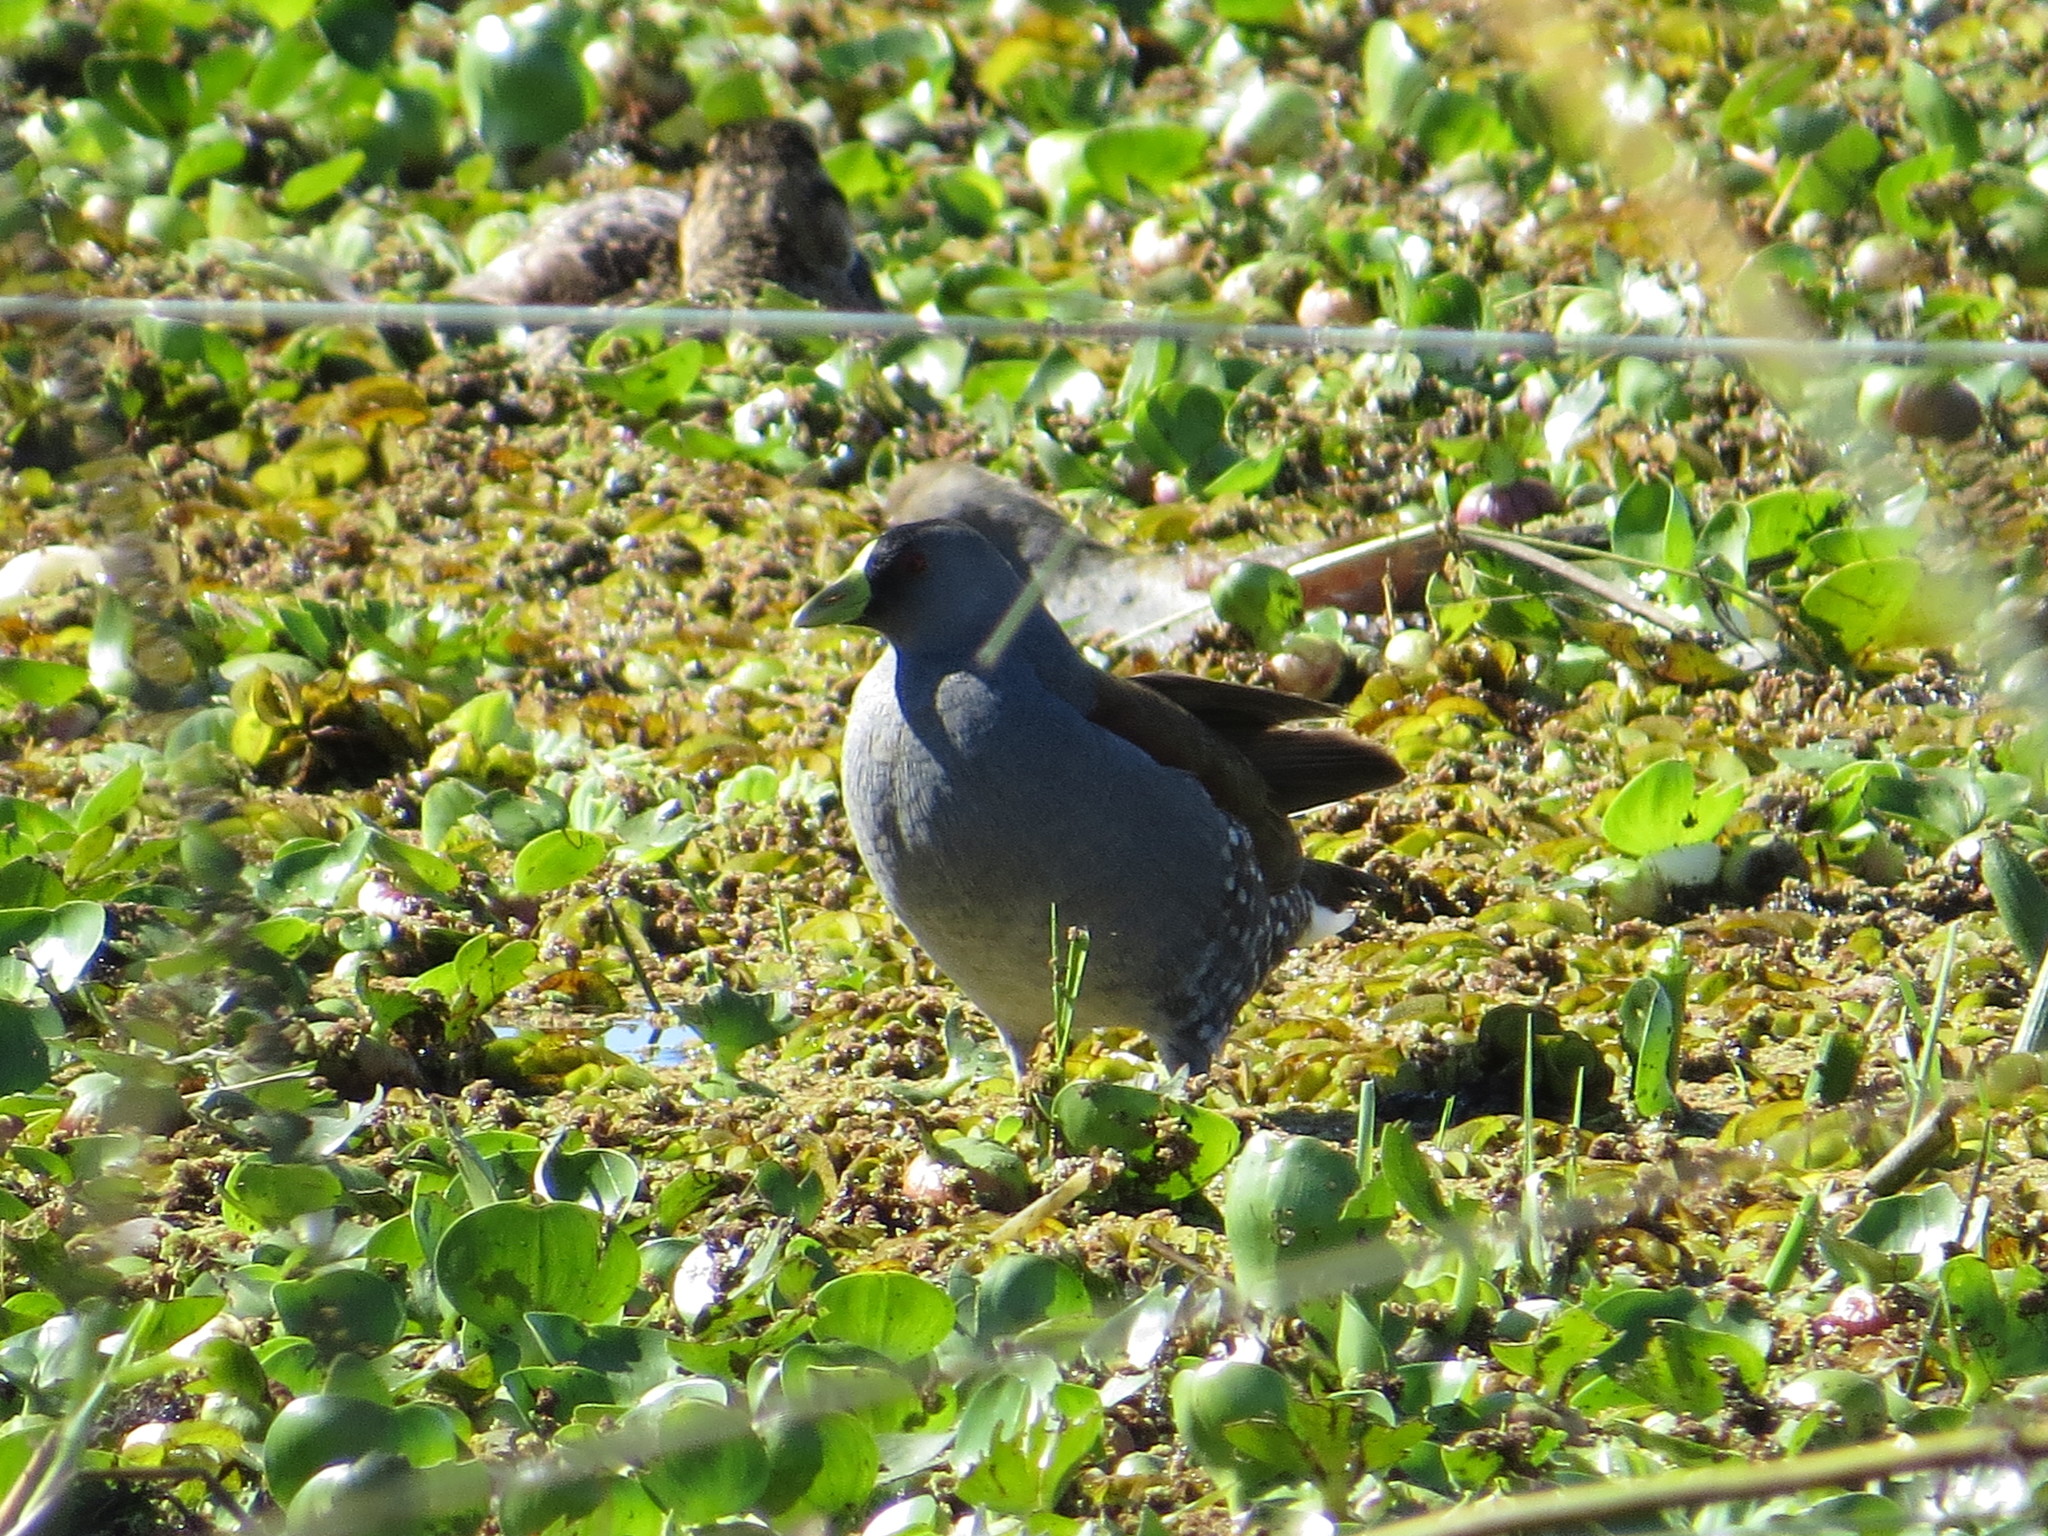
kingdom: Animalia
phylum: Chordata
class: Aves
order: Gruiformes
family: Rallidae
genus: Gallinula
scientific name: Gallinula melanops
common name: Spot-flanked gallinule
